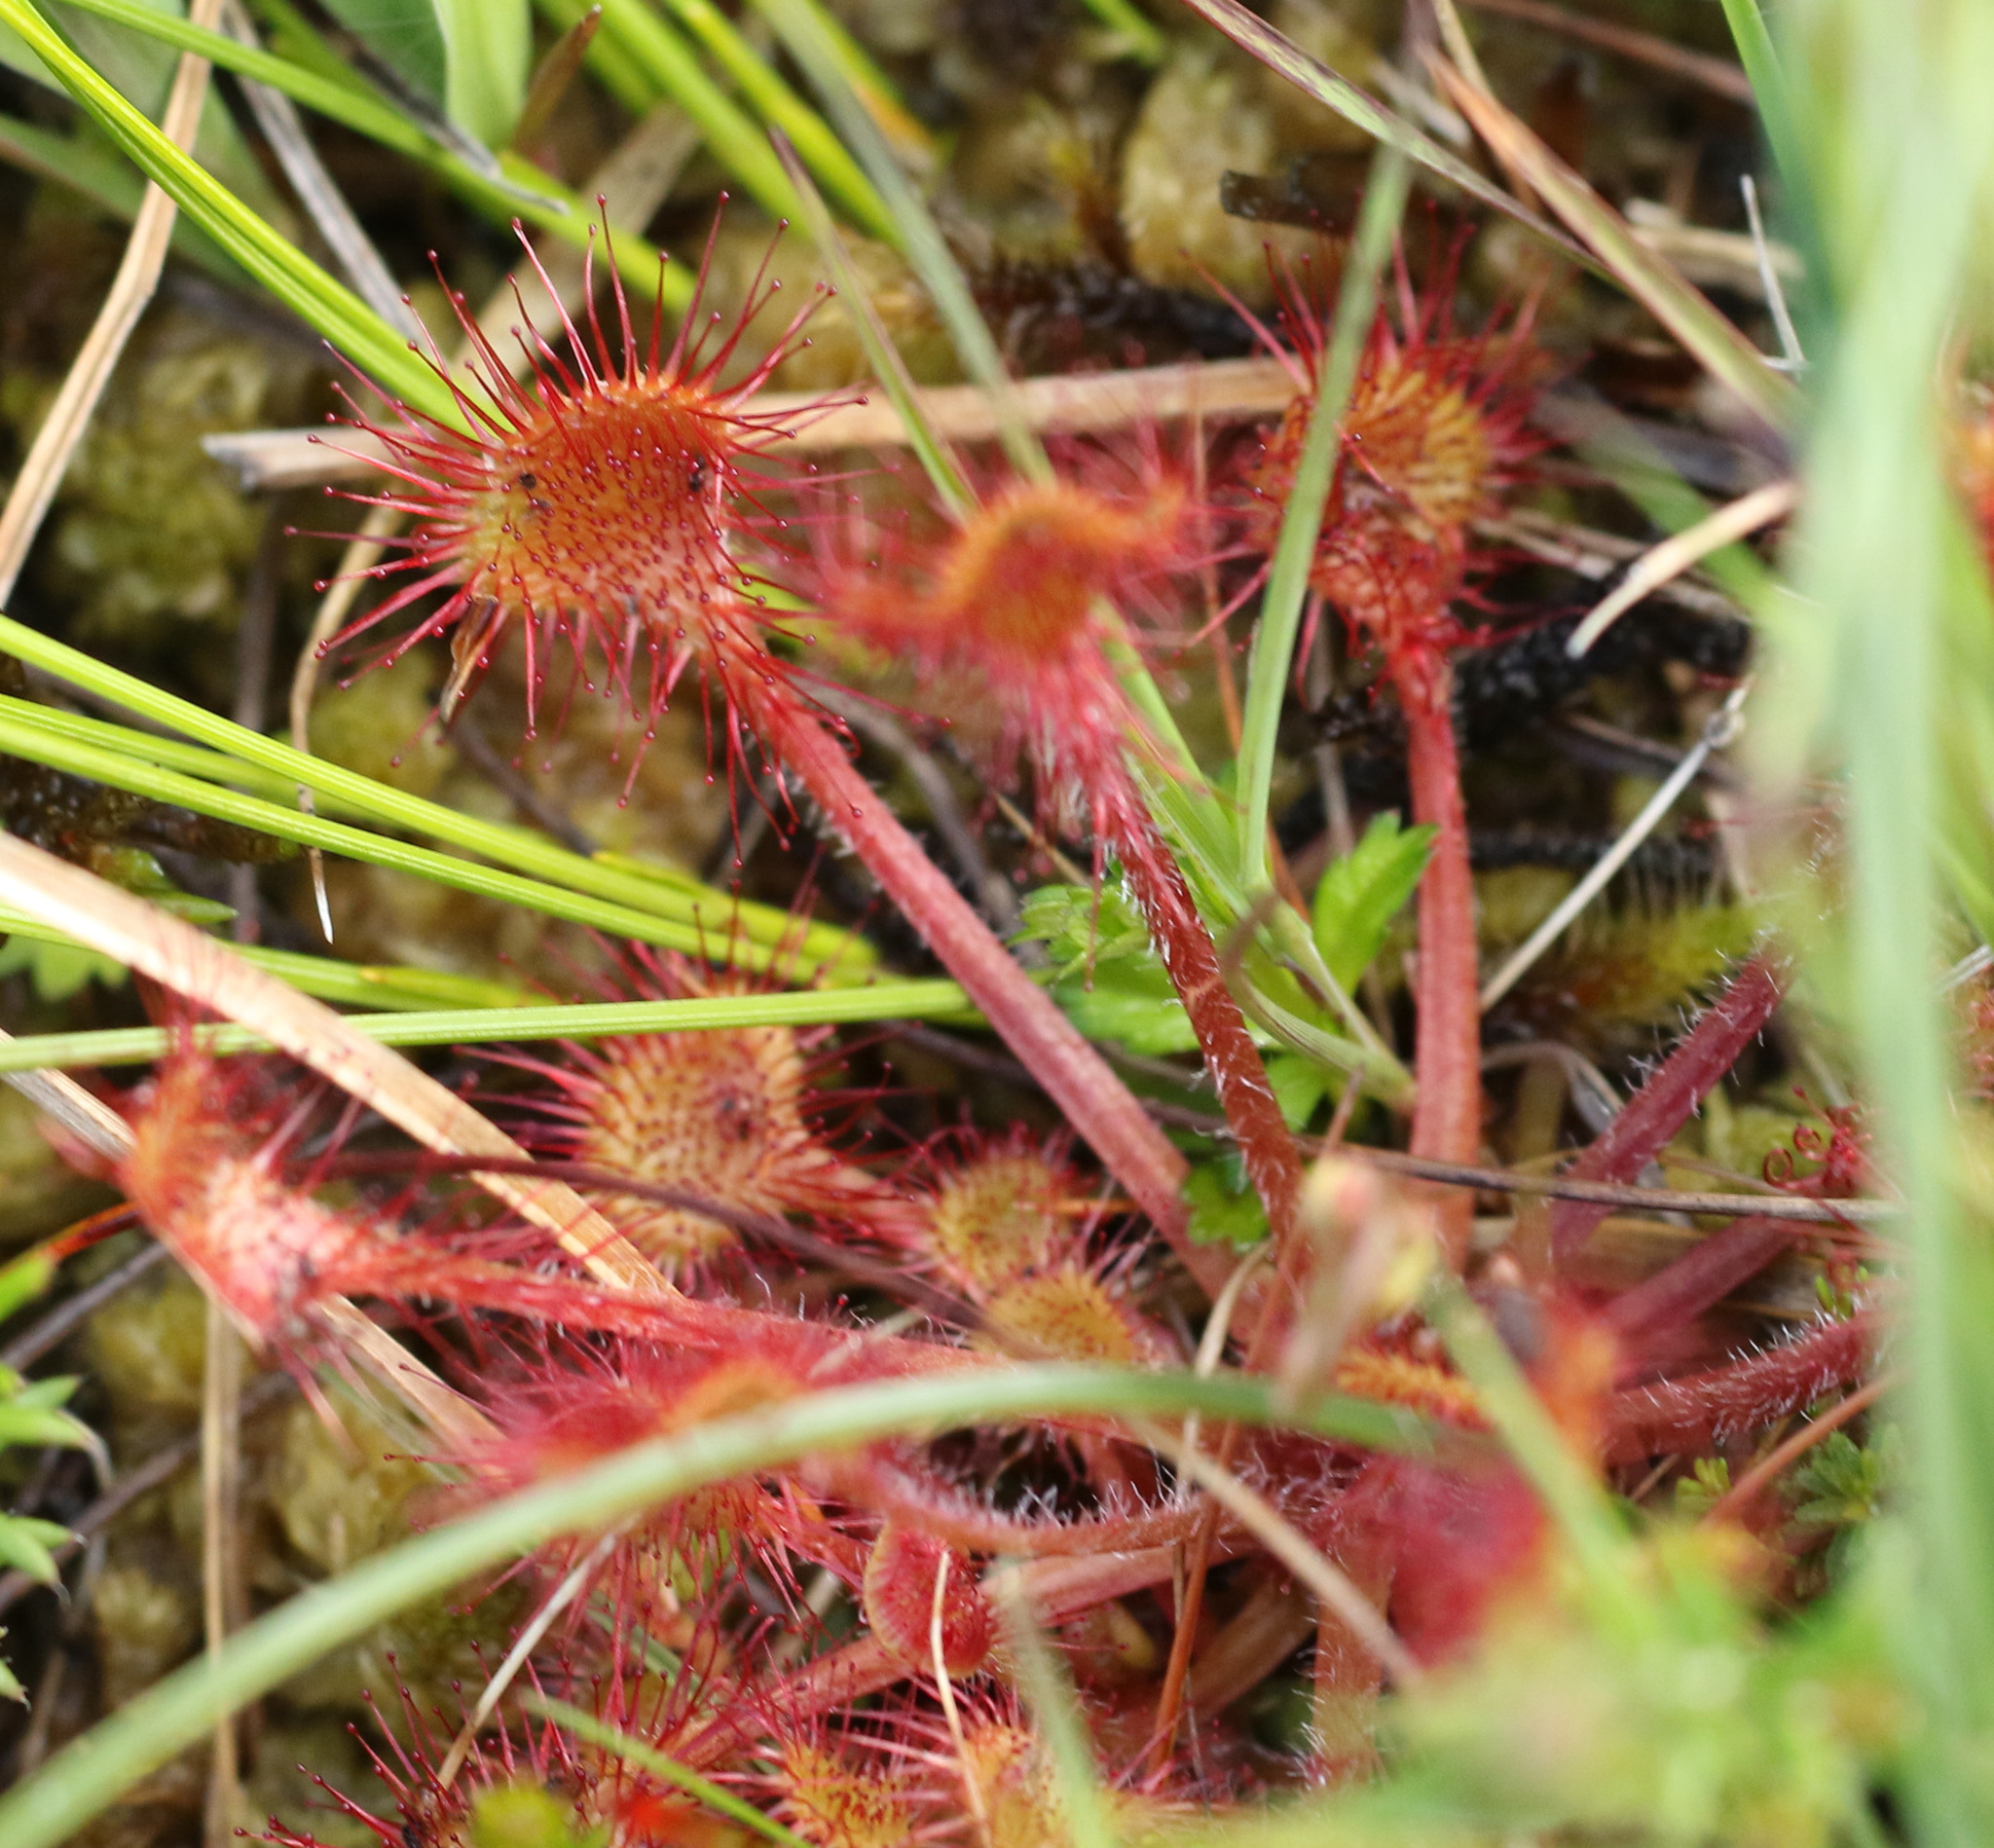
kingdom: Plantae
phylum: Tracheophyta
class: Magnoliopsida
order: Caryophyllales
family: Droseraceae
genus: Drosera
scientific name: Drosera rotundifolia
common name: Round-leaved sundew
